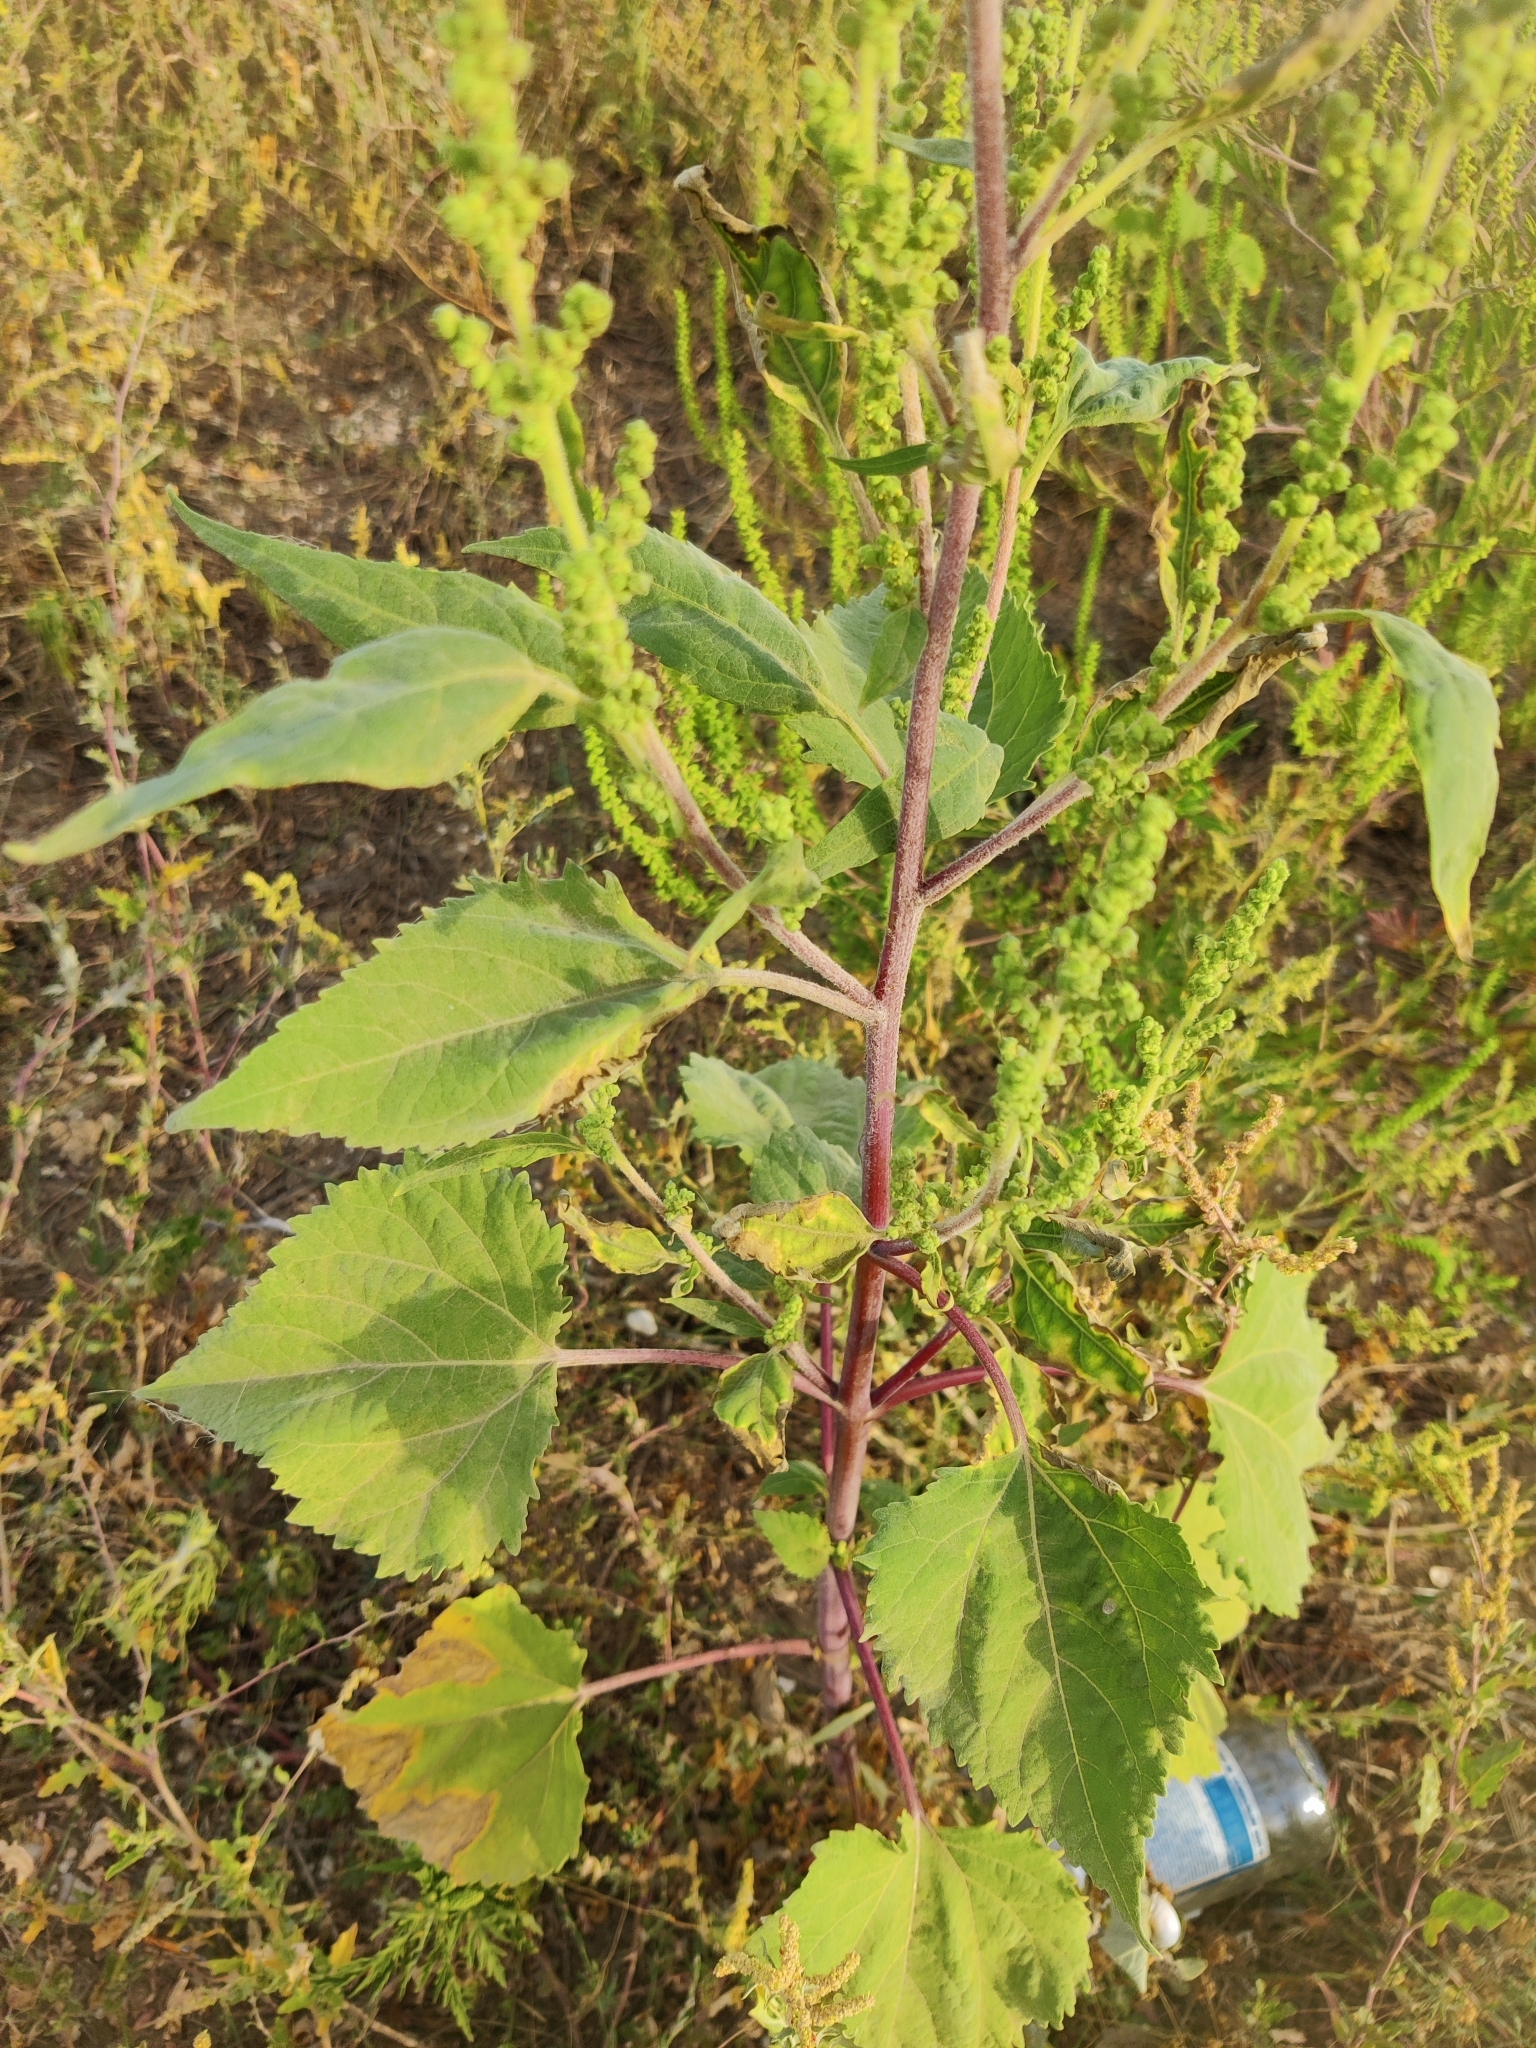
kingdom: Plantae
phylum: Tracheophyta
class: Magnoliopsida
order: Asterales
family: Asteraceae
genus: Cyclachaena
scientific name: Cyclachaena xanthiifolia
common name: Giant sumpweed
